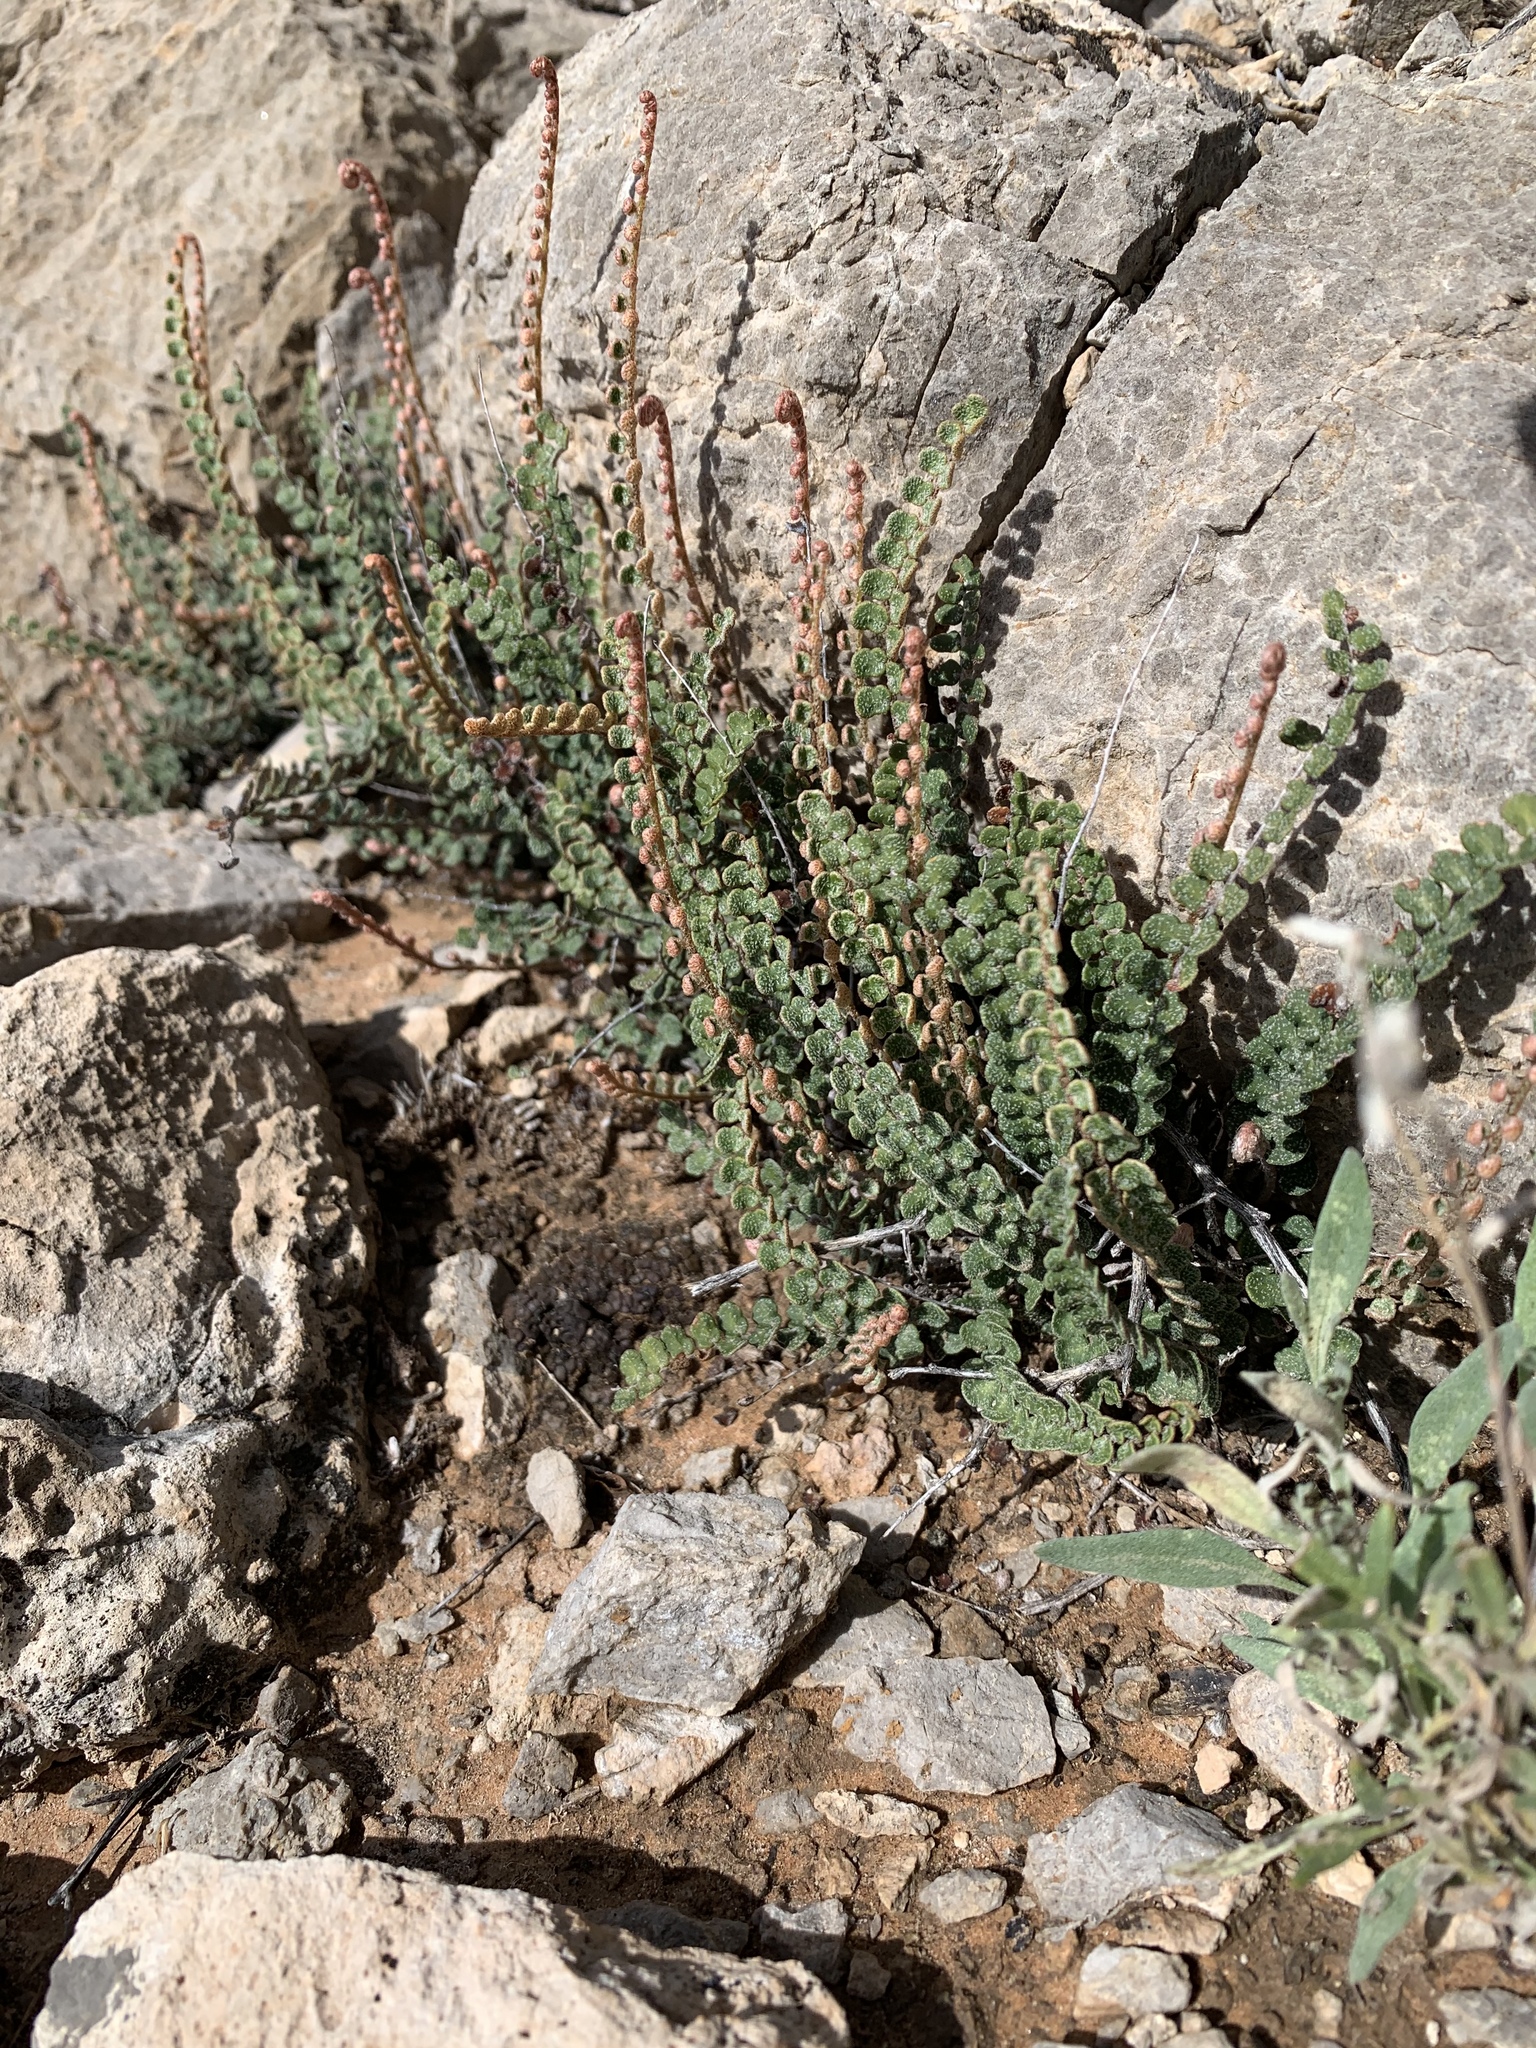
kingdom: Plantae
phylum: Tracheophyta
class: Polypodiopsida
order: Polypodiales
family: Pteridaceae
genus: Astrolepis
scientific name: Astrolepis cochisensis
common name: Scaly cloak fern
